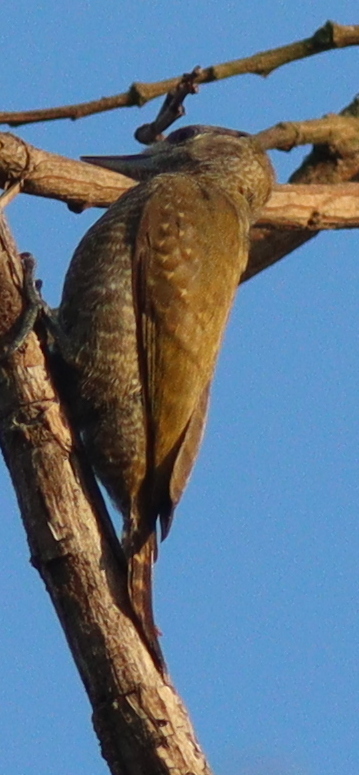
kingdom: Animalia
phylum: Chordata
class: Aves
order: Piciformes
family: Picidae
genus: Veniliornis
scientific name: Veniliornis passerinus
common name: Little woodpecker
